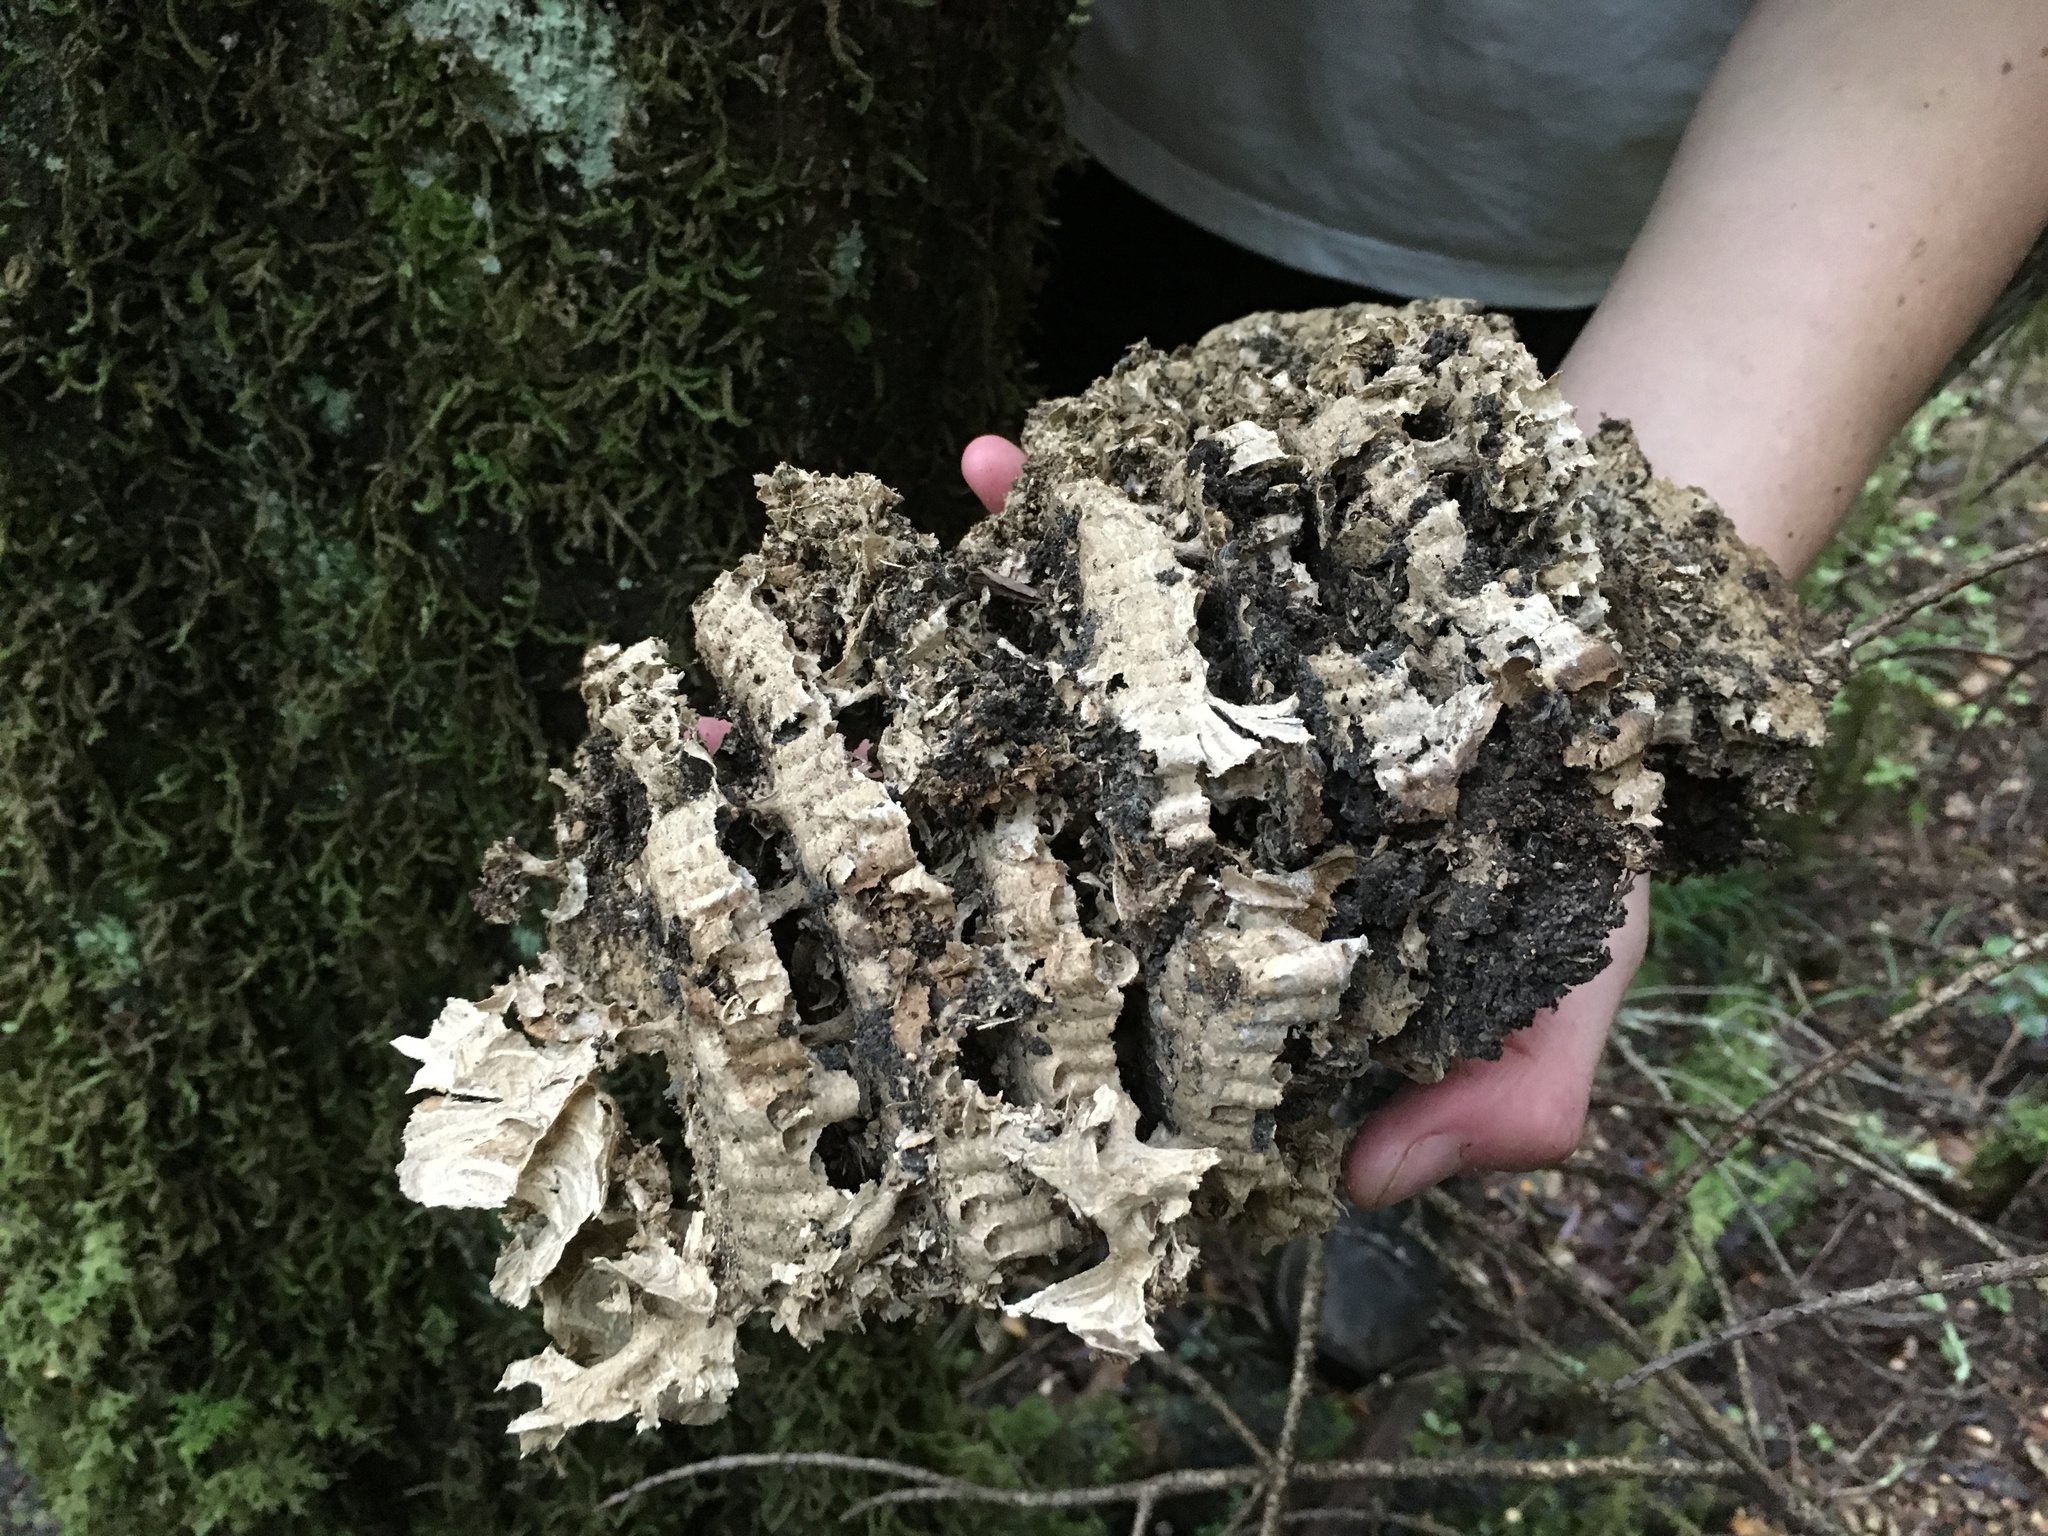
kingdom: Animalia
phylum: Arthropoda
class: Insecta
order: Hymenoptera
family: Vespidae
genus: Vespula
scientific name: Vespula
